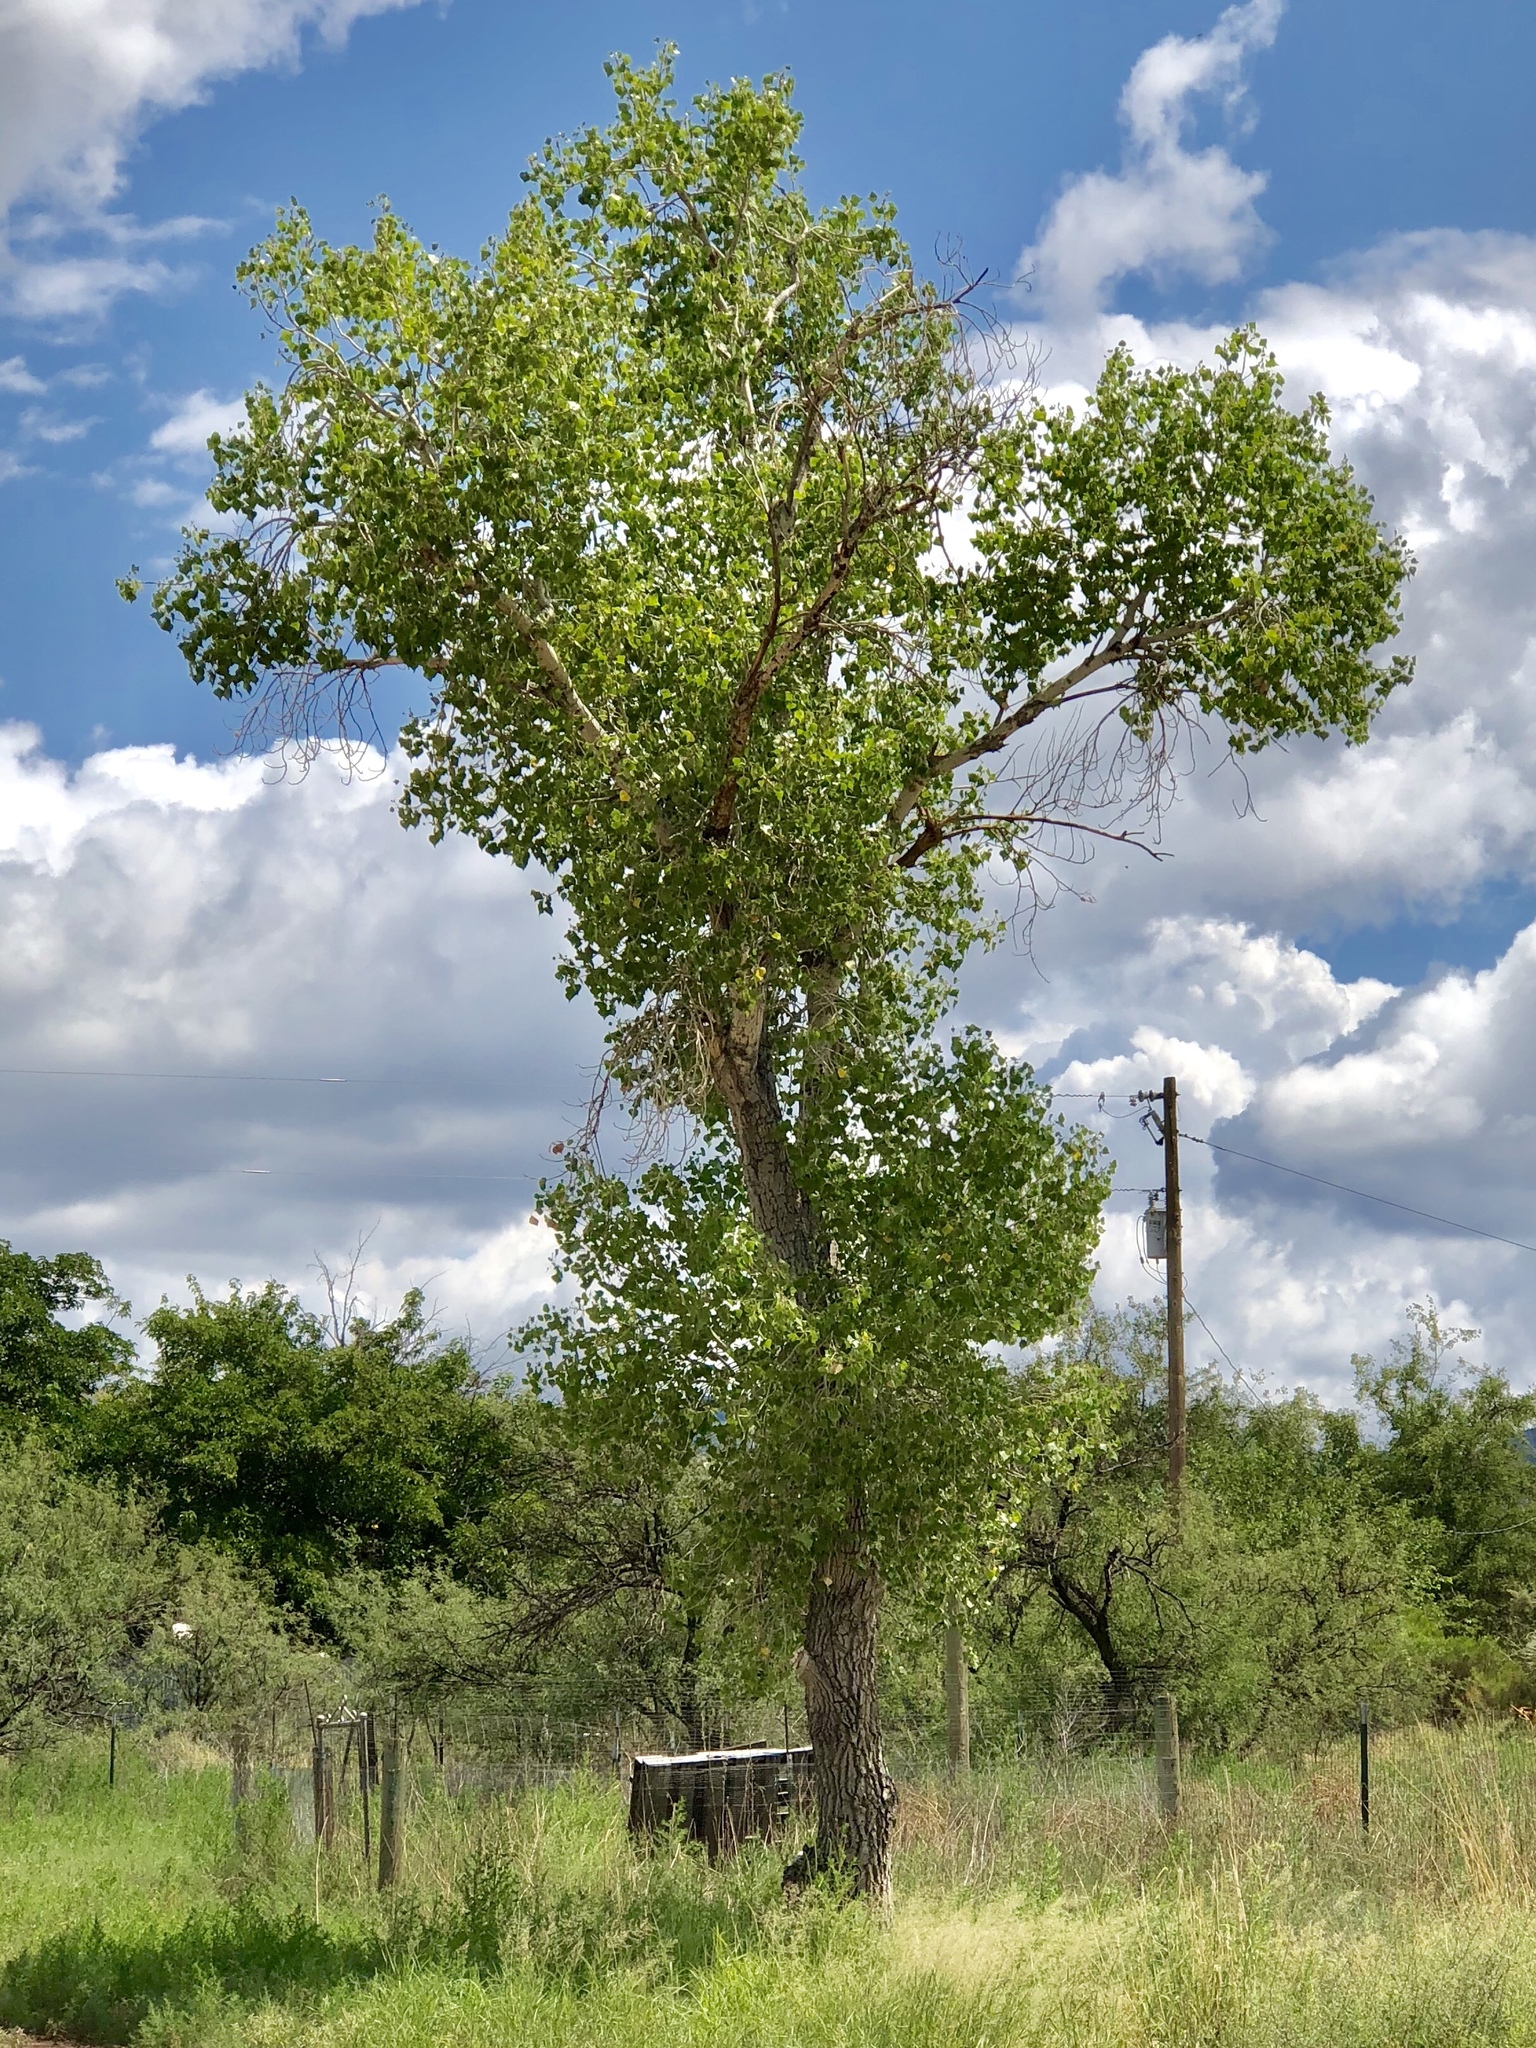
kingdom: Plantae
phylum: Tracheophyta
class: Magnoliopsida
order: Malpighiales
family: Salicaceae
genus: Populus
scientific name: Populus fremontii
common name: Fremont's cottonwood
